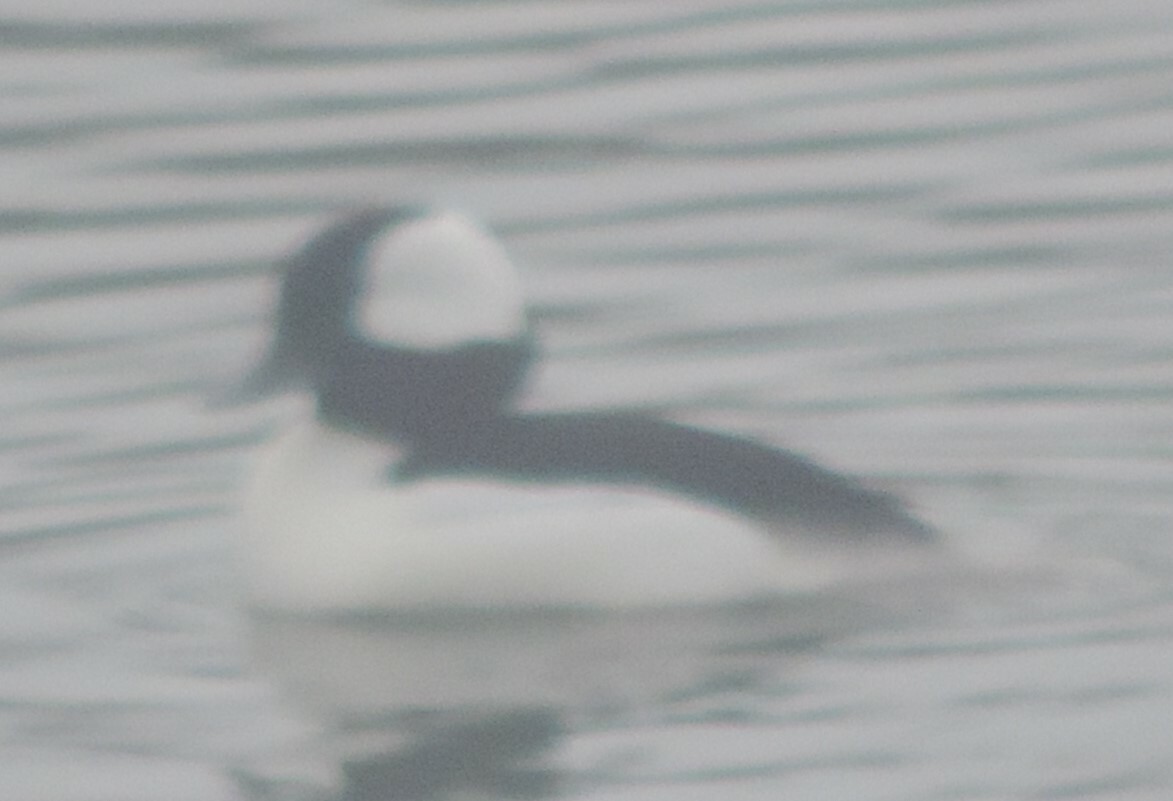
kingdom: Animalia
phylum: Chordata
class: Aves
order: Anseriformes
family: Anatidae
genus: Bucephala
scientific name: Bucephala albeola
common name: Bufflehead
